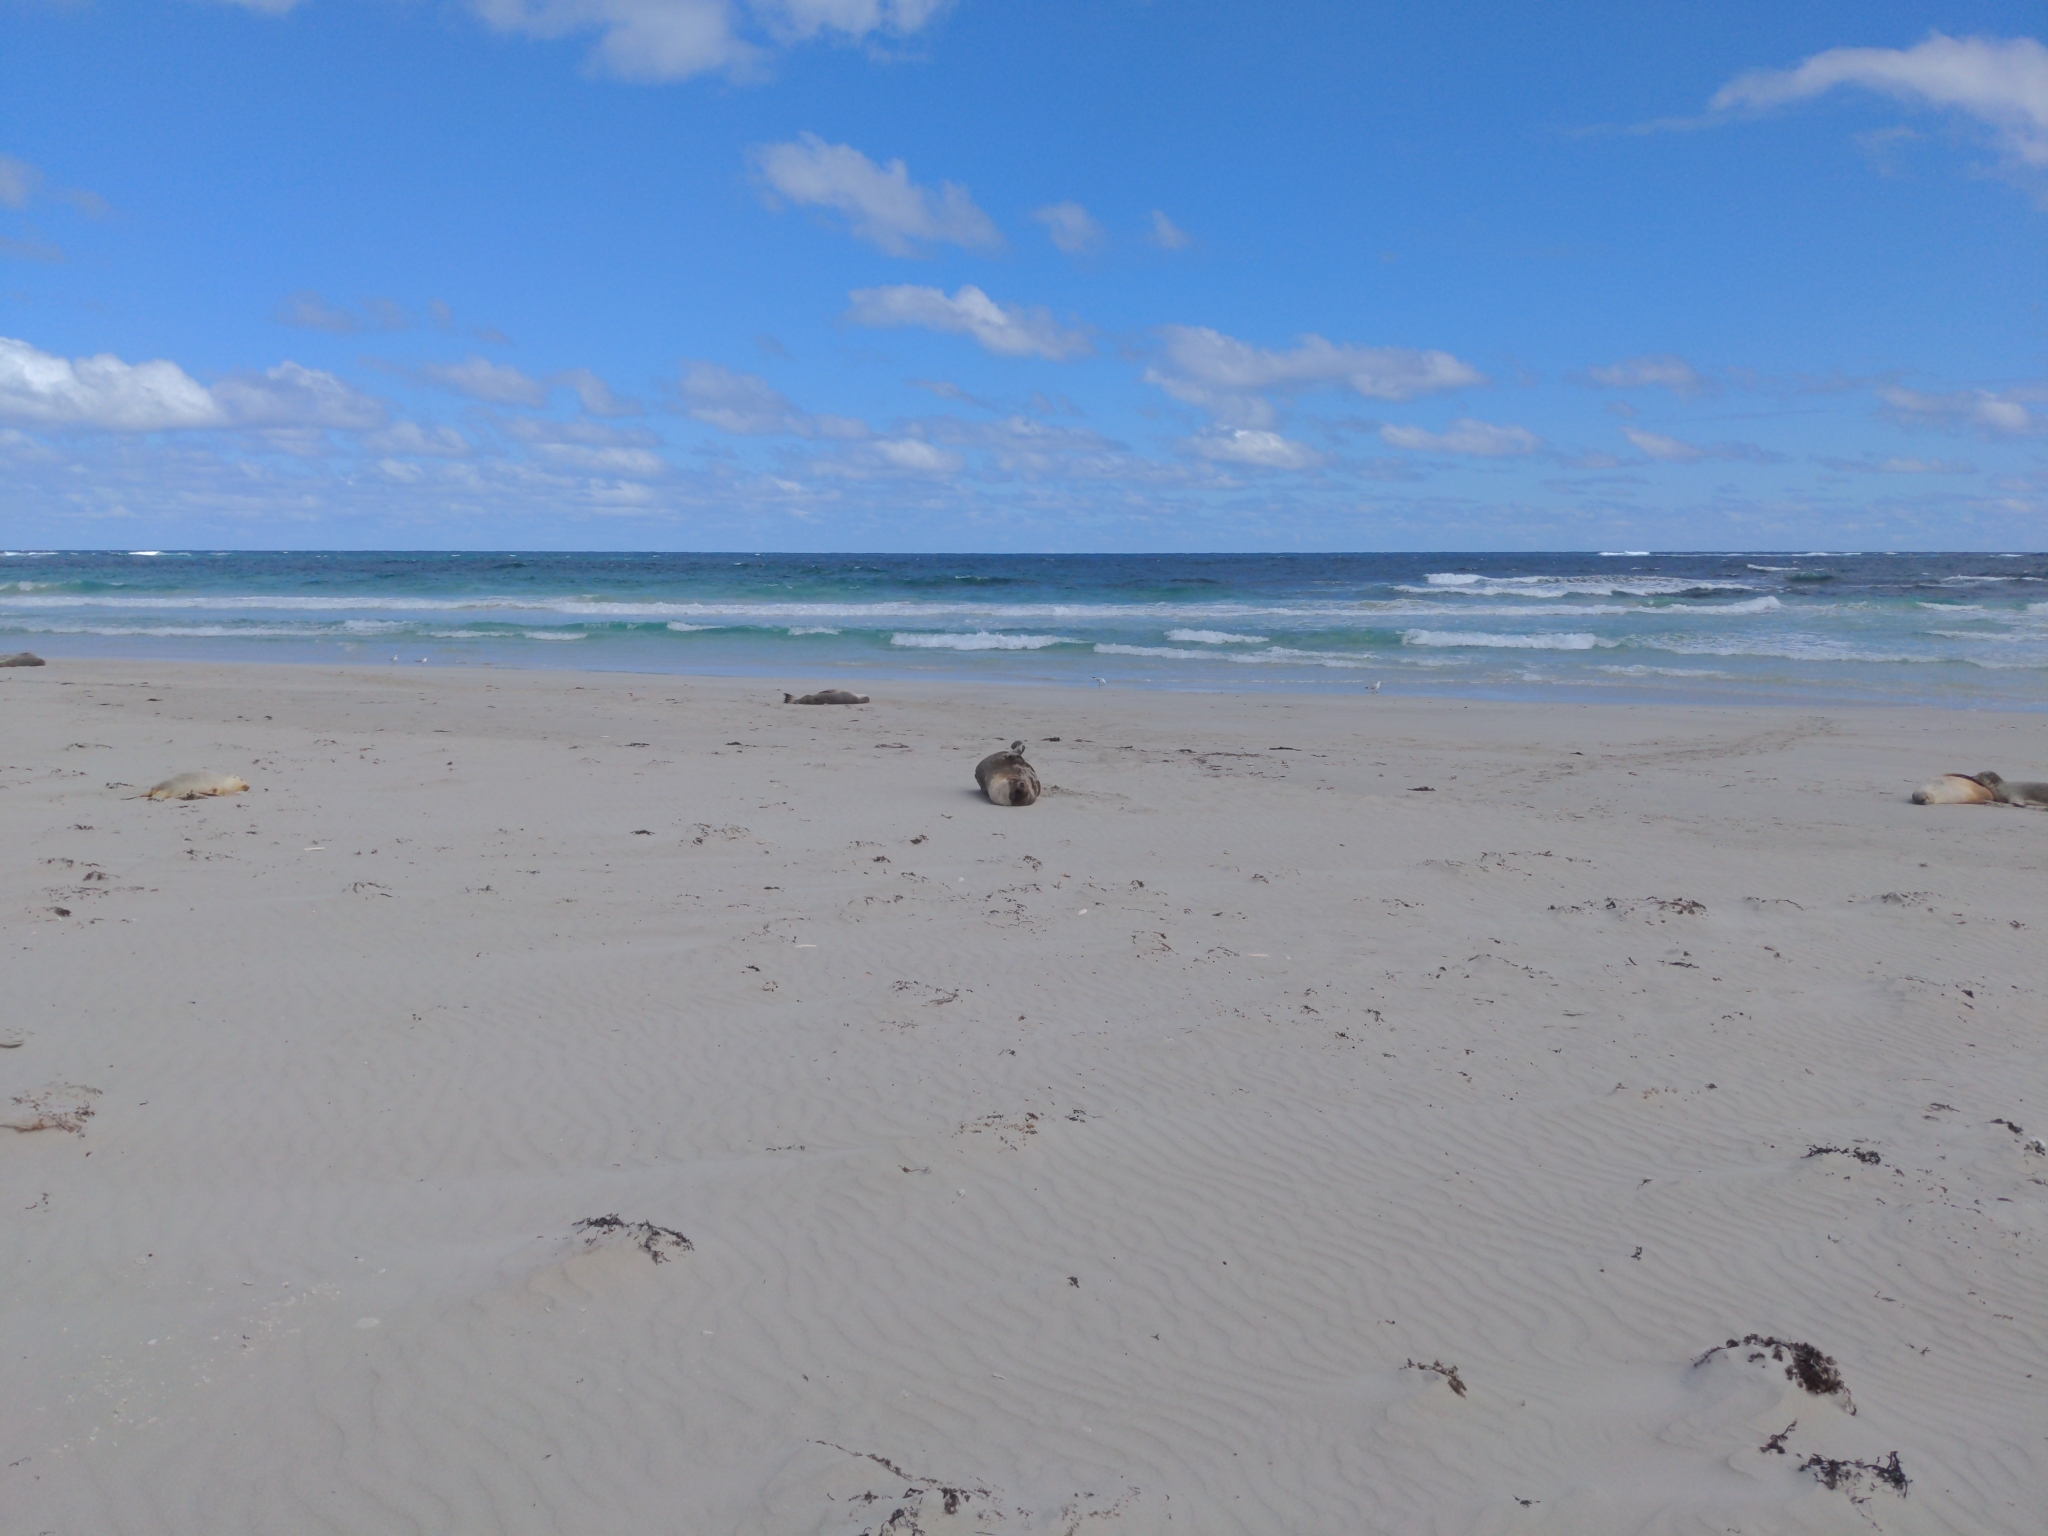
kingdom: Animalia
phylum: Chordata
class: Mammalia
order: Carnivora
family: Otariidae
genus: Neophoca
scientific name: Neophoca cinerea
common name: Australian sea lion
